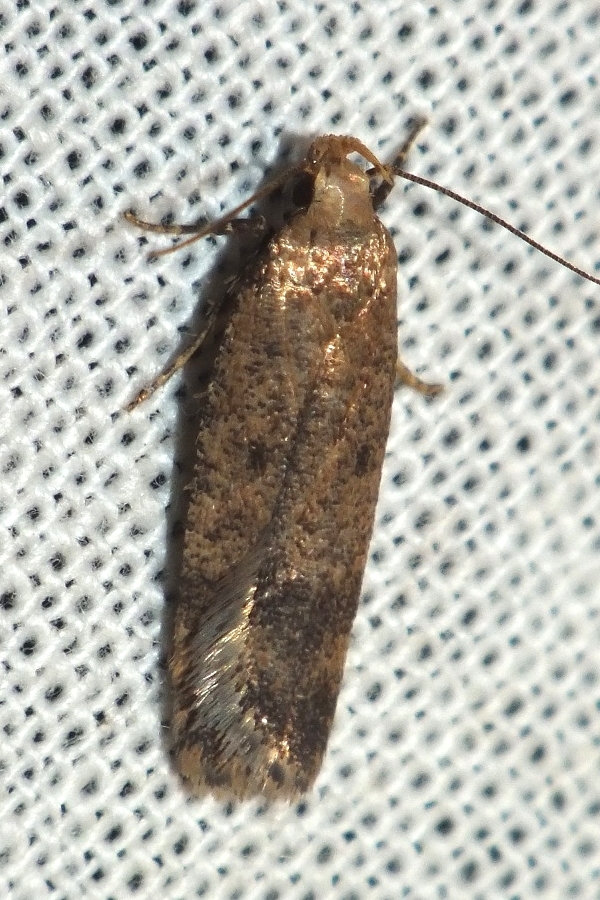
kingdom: Animalia
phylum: Arthropoda
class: Insecta
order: Lepidoptera
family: Gelechiidae
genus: Pexicopia
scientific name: Pexicopia malvella
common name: Hollyhock seed moth
